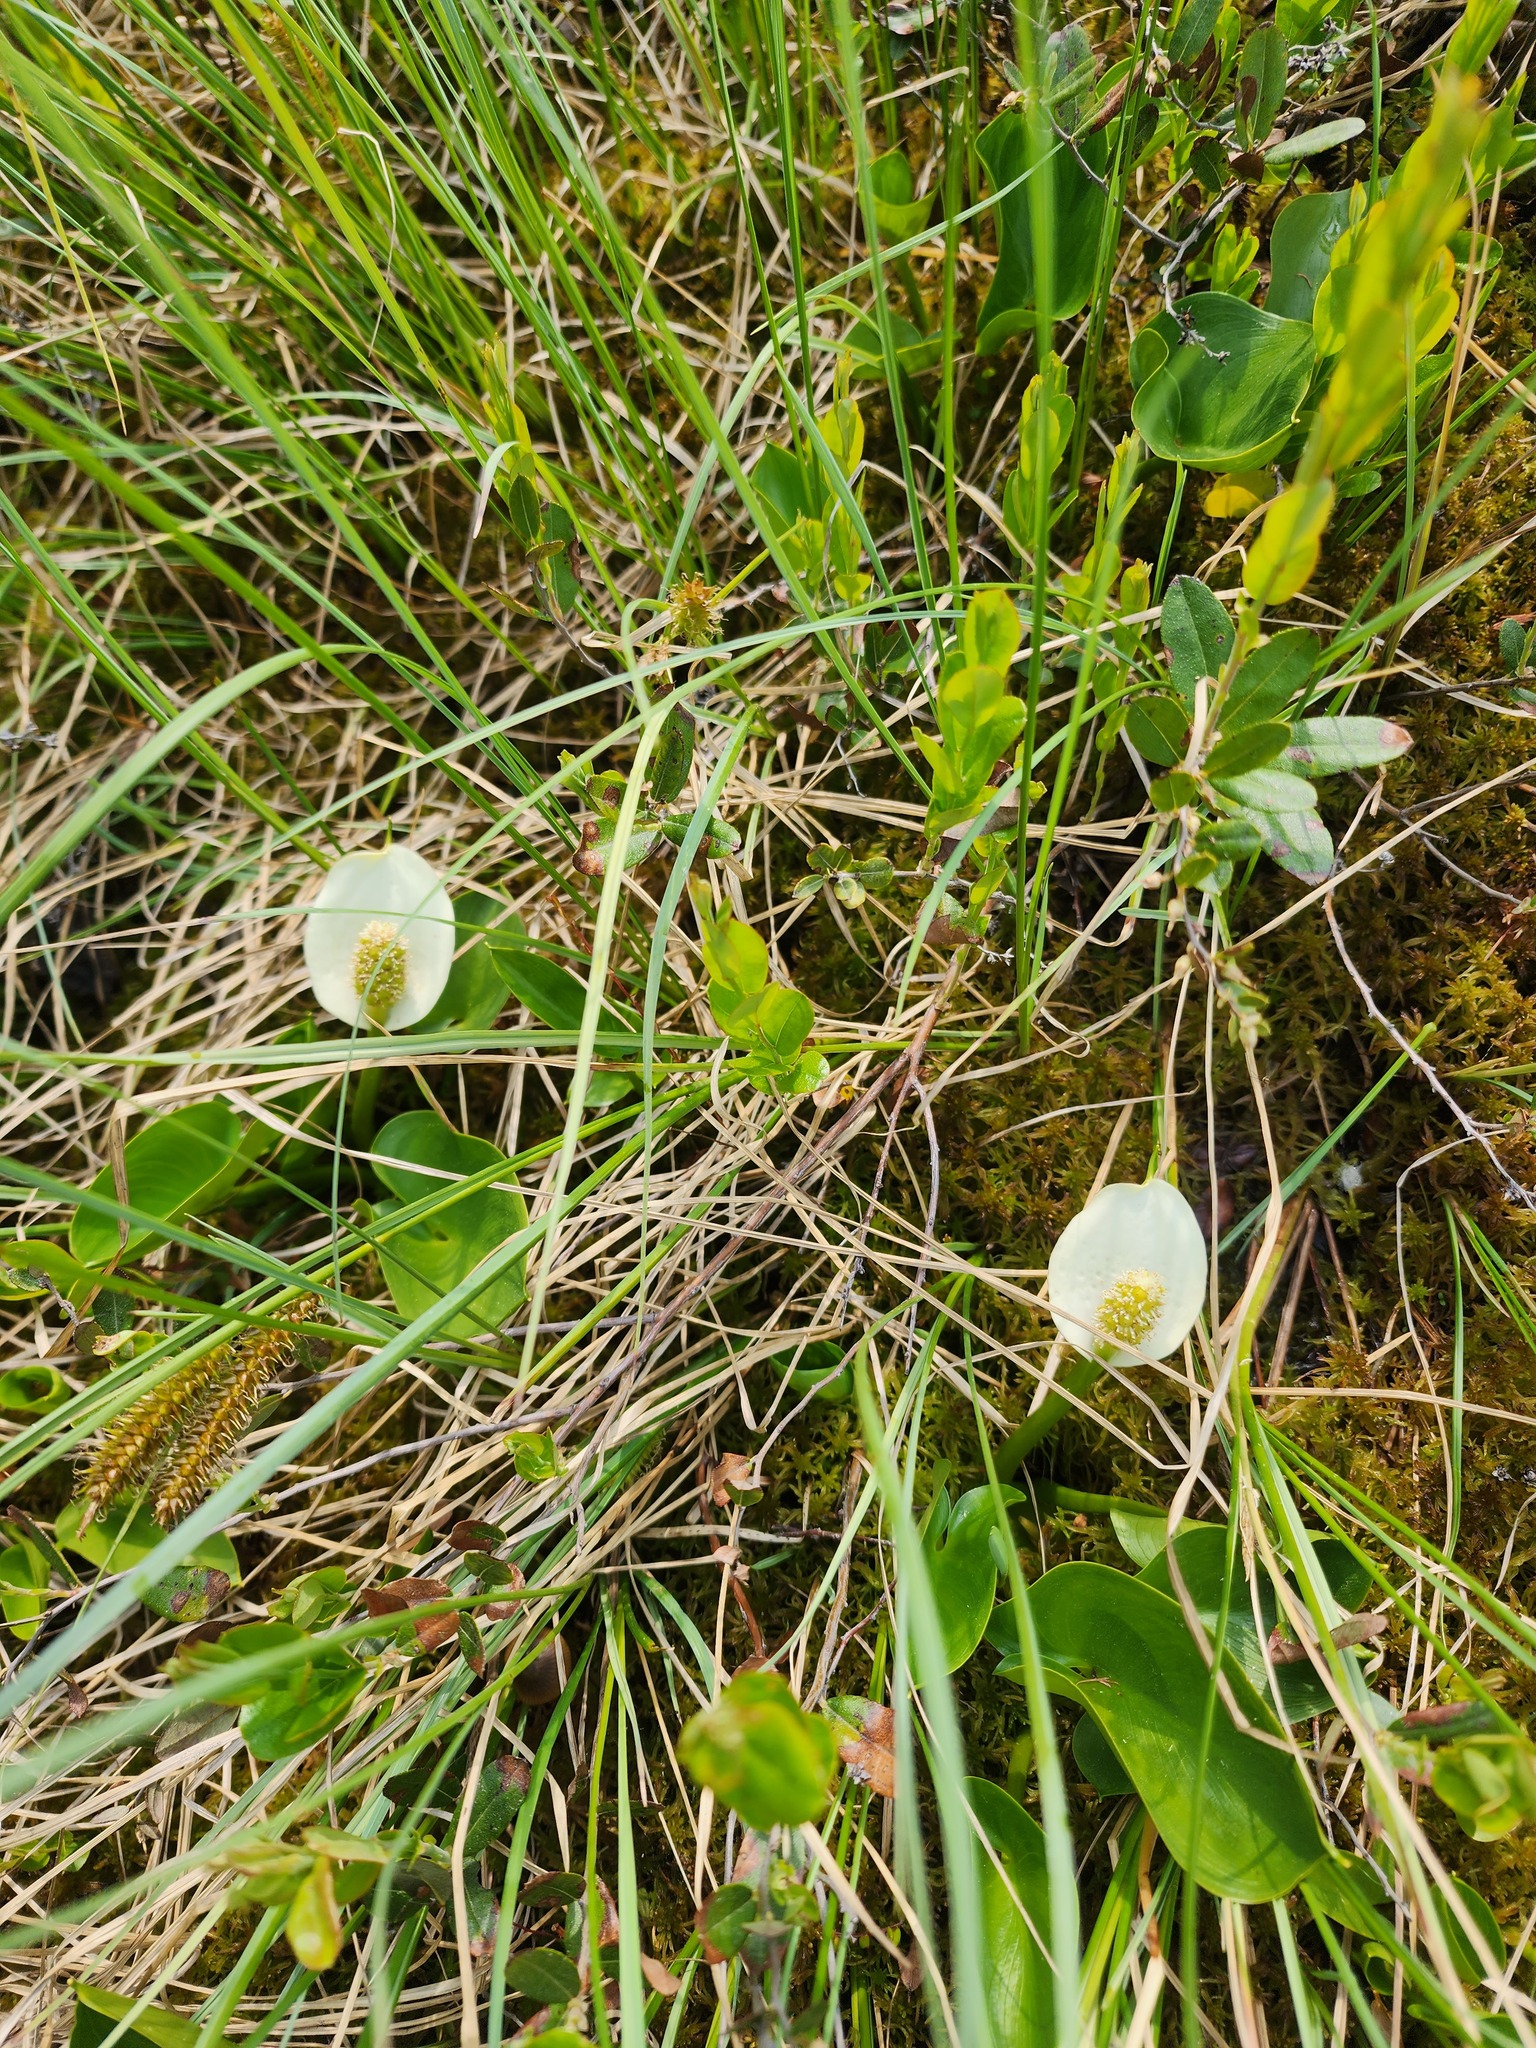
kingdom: Plantae
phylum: Tracheophyta
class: Liliopsida
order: Alismatales
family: Araceae
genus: Calla
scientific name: Calla palustris
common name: Bog arum
